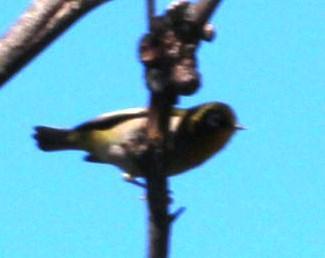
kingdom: Animalia
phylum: Chordata
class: Aves
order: Passeriformes
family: Zosteropidae
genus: Zosterops
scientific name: Zosterops virens
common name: Cape white-eye
